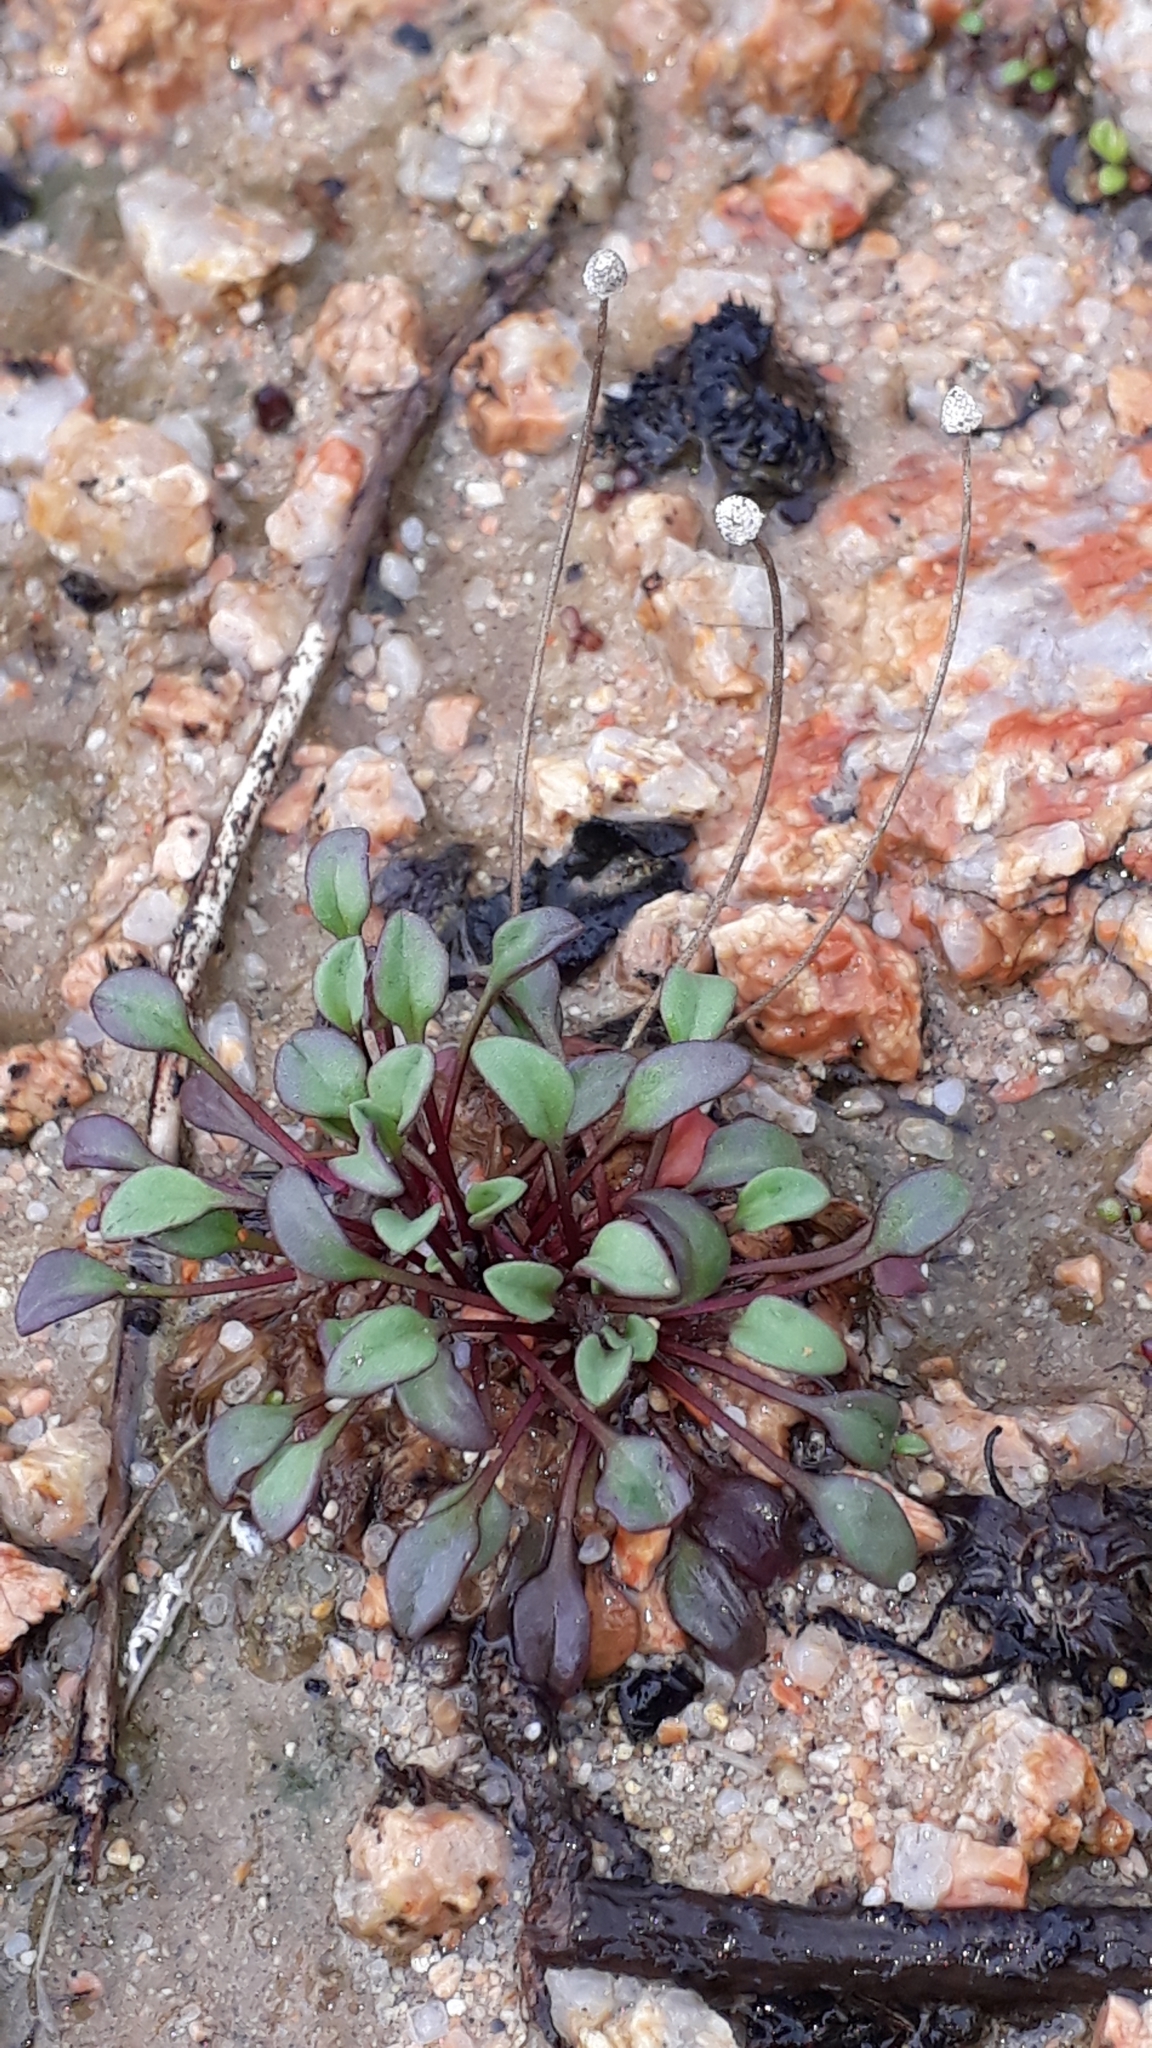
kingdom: Plantae
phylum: Tracheophyta
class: Magnoliopsida
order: Asterales
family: Asteraceae
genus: Bellium
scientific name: Bellium bellidioides
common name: False daisy
